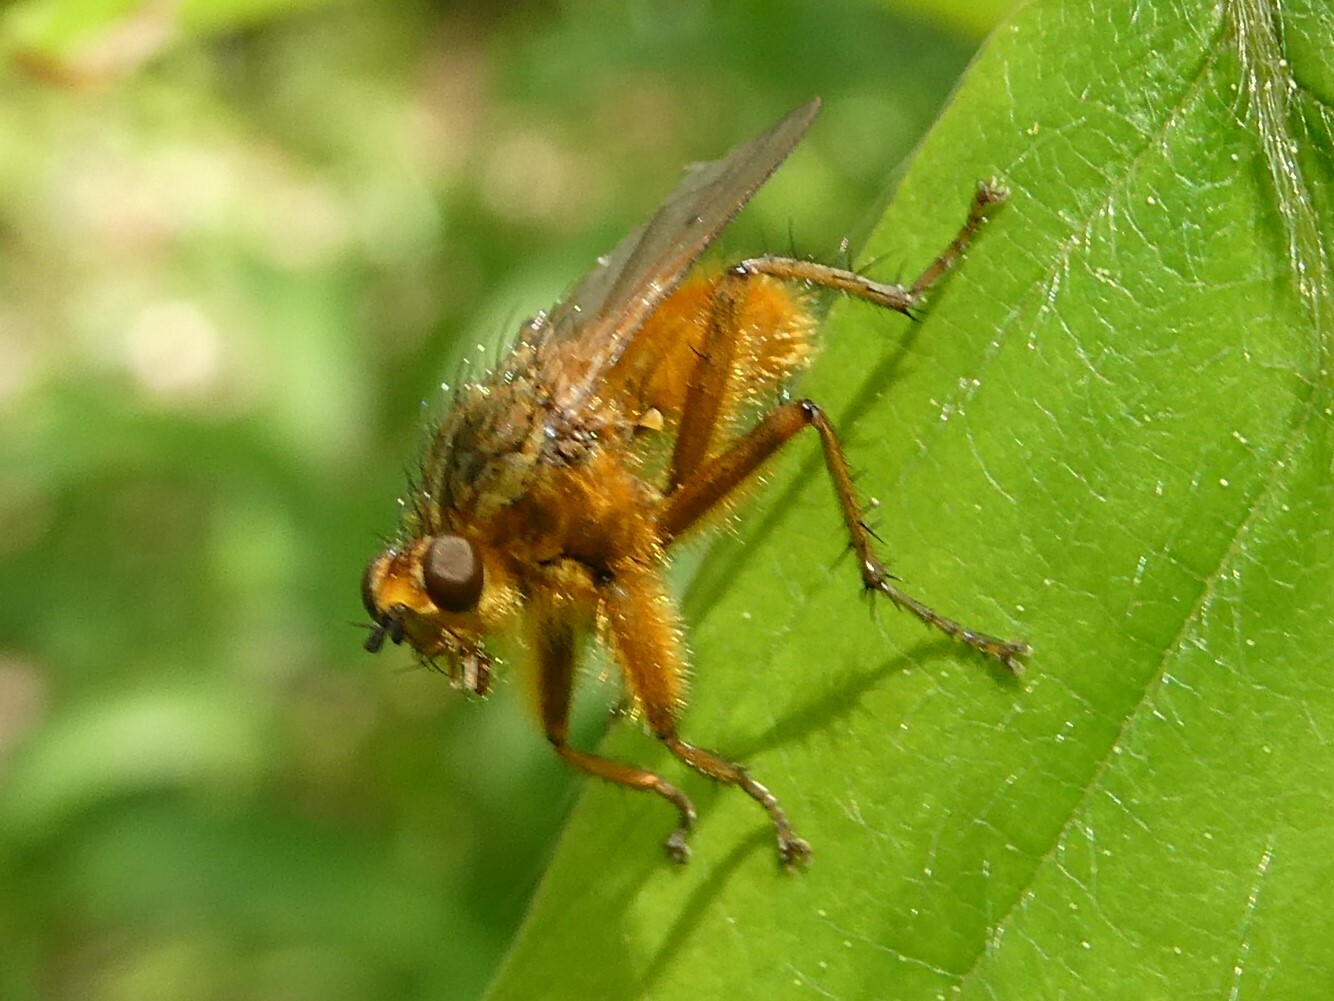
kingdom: Animalia
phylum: Arthropoda
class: Insecta
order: Diptera
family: Scathophagidae
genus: Scathophaga
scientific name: Scathophaga stercoraria
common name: Yellow dung fly
